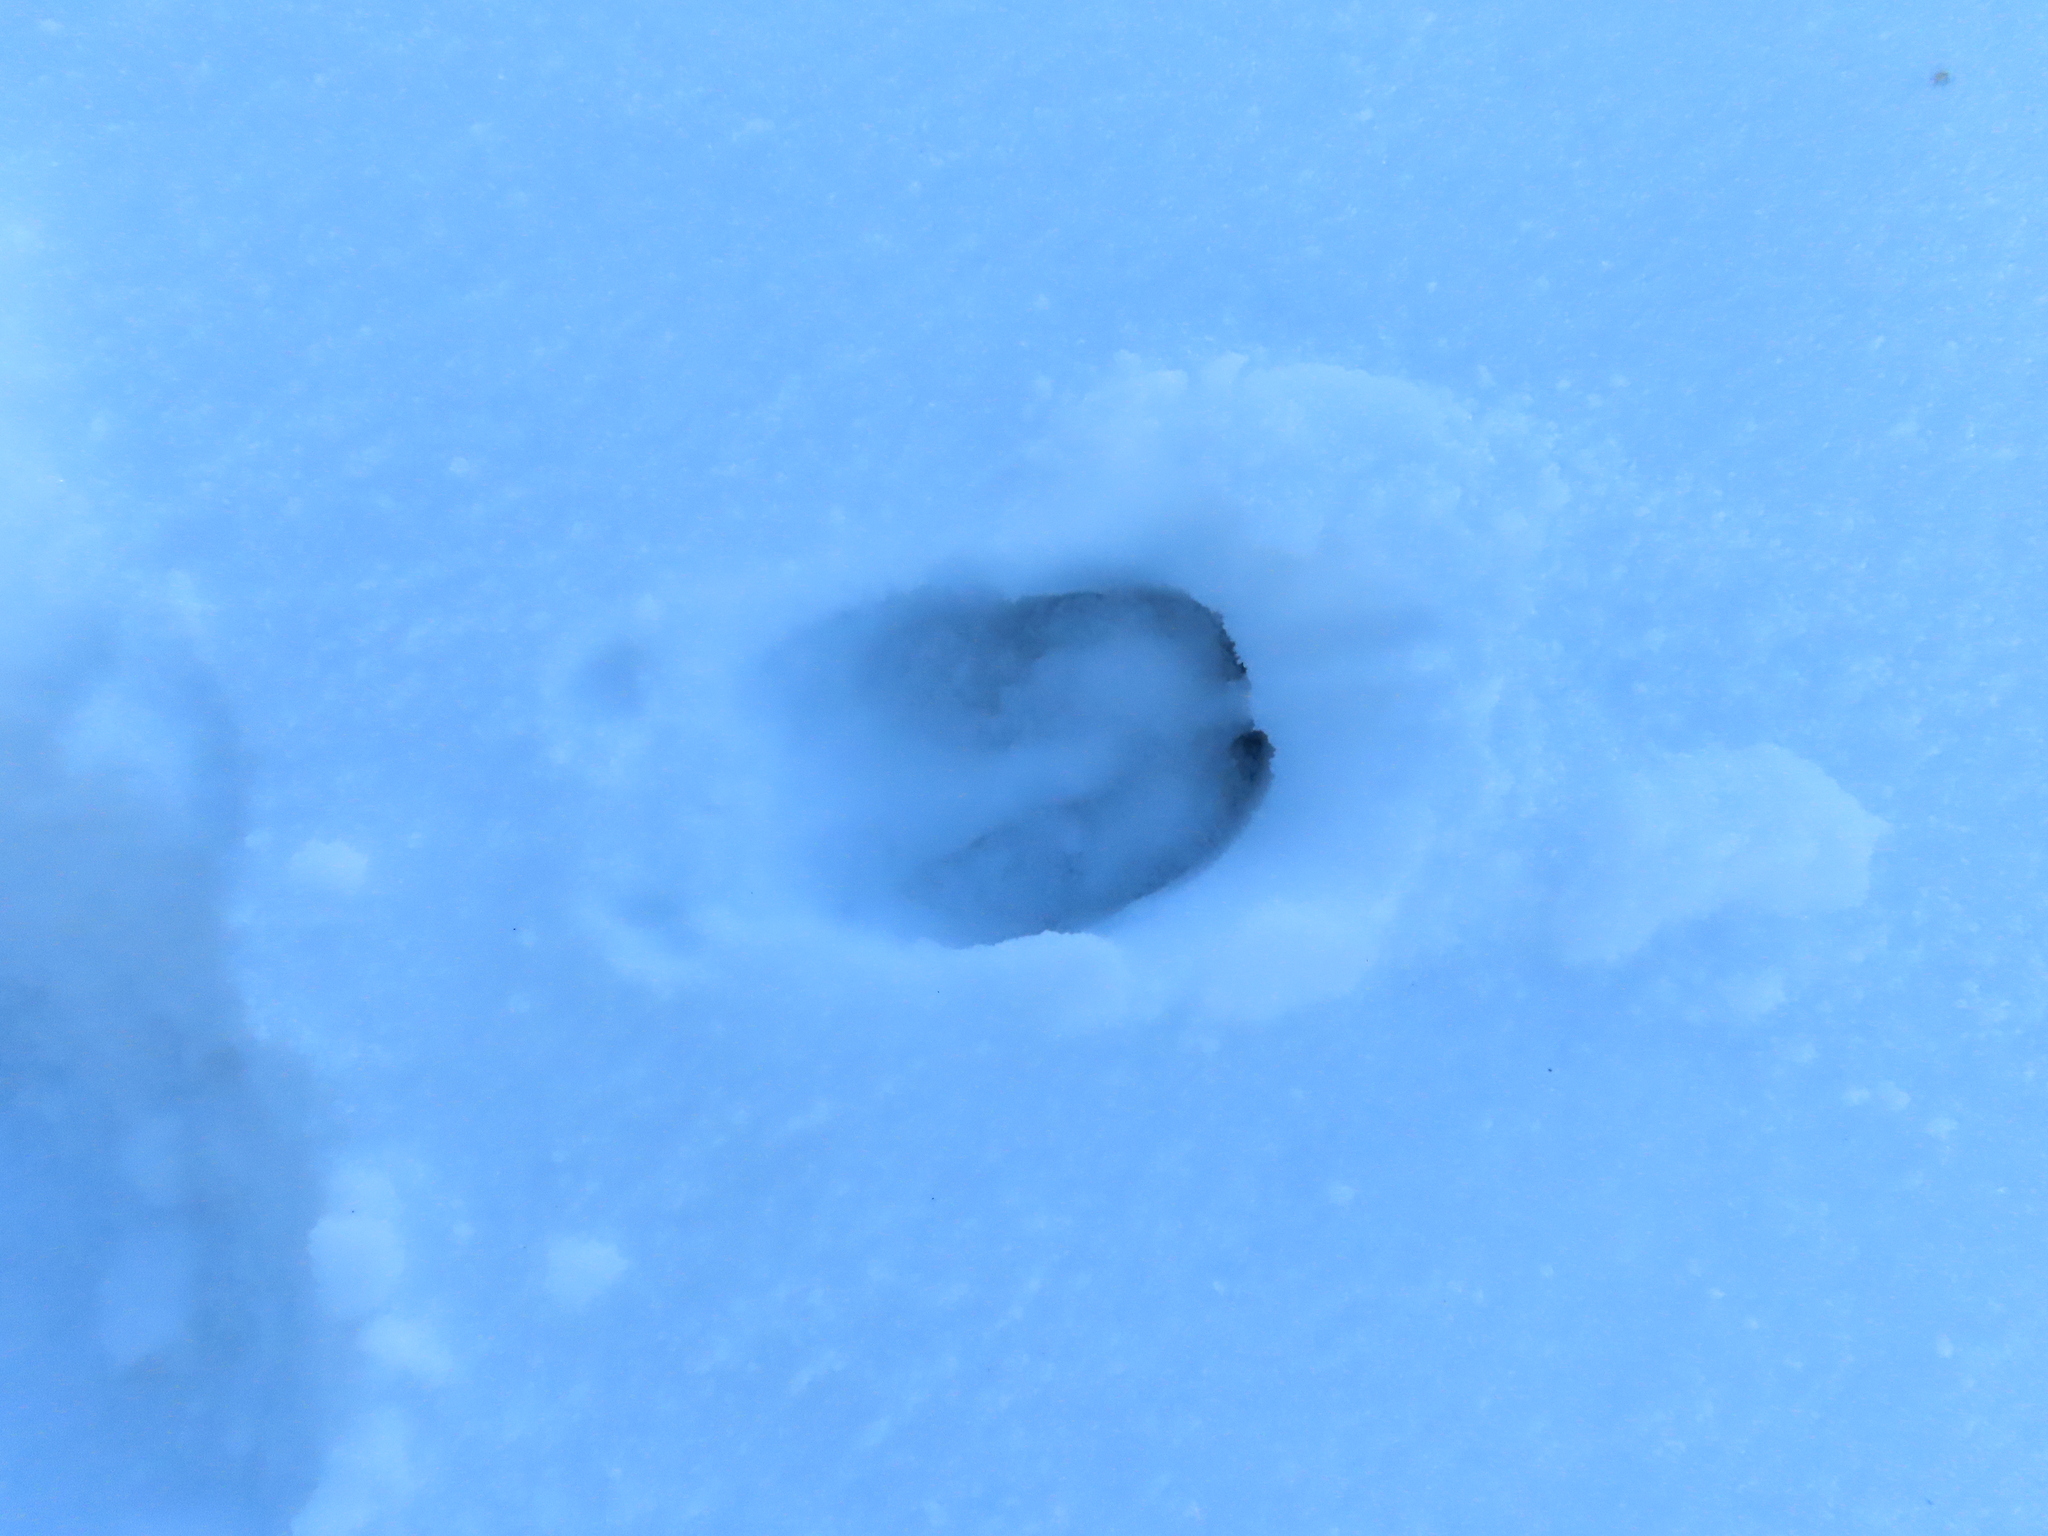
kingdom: Animalia
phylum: Chordata
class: Mammalia
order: Artiodactyla
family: Cervidae
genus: Odocoileus
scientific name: Odocoileus virginianus
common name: White-tailed deer
